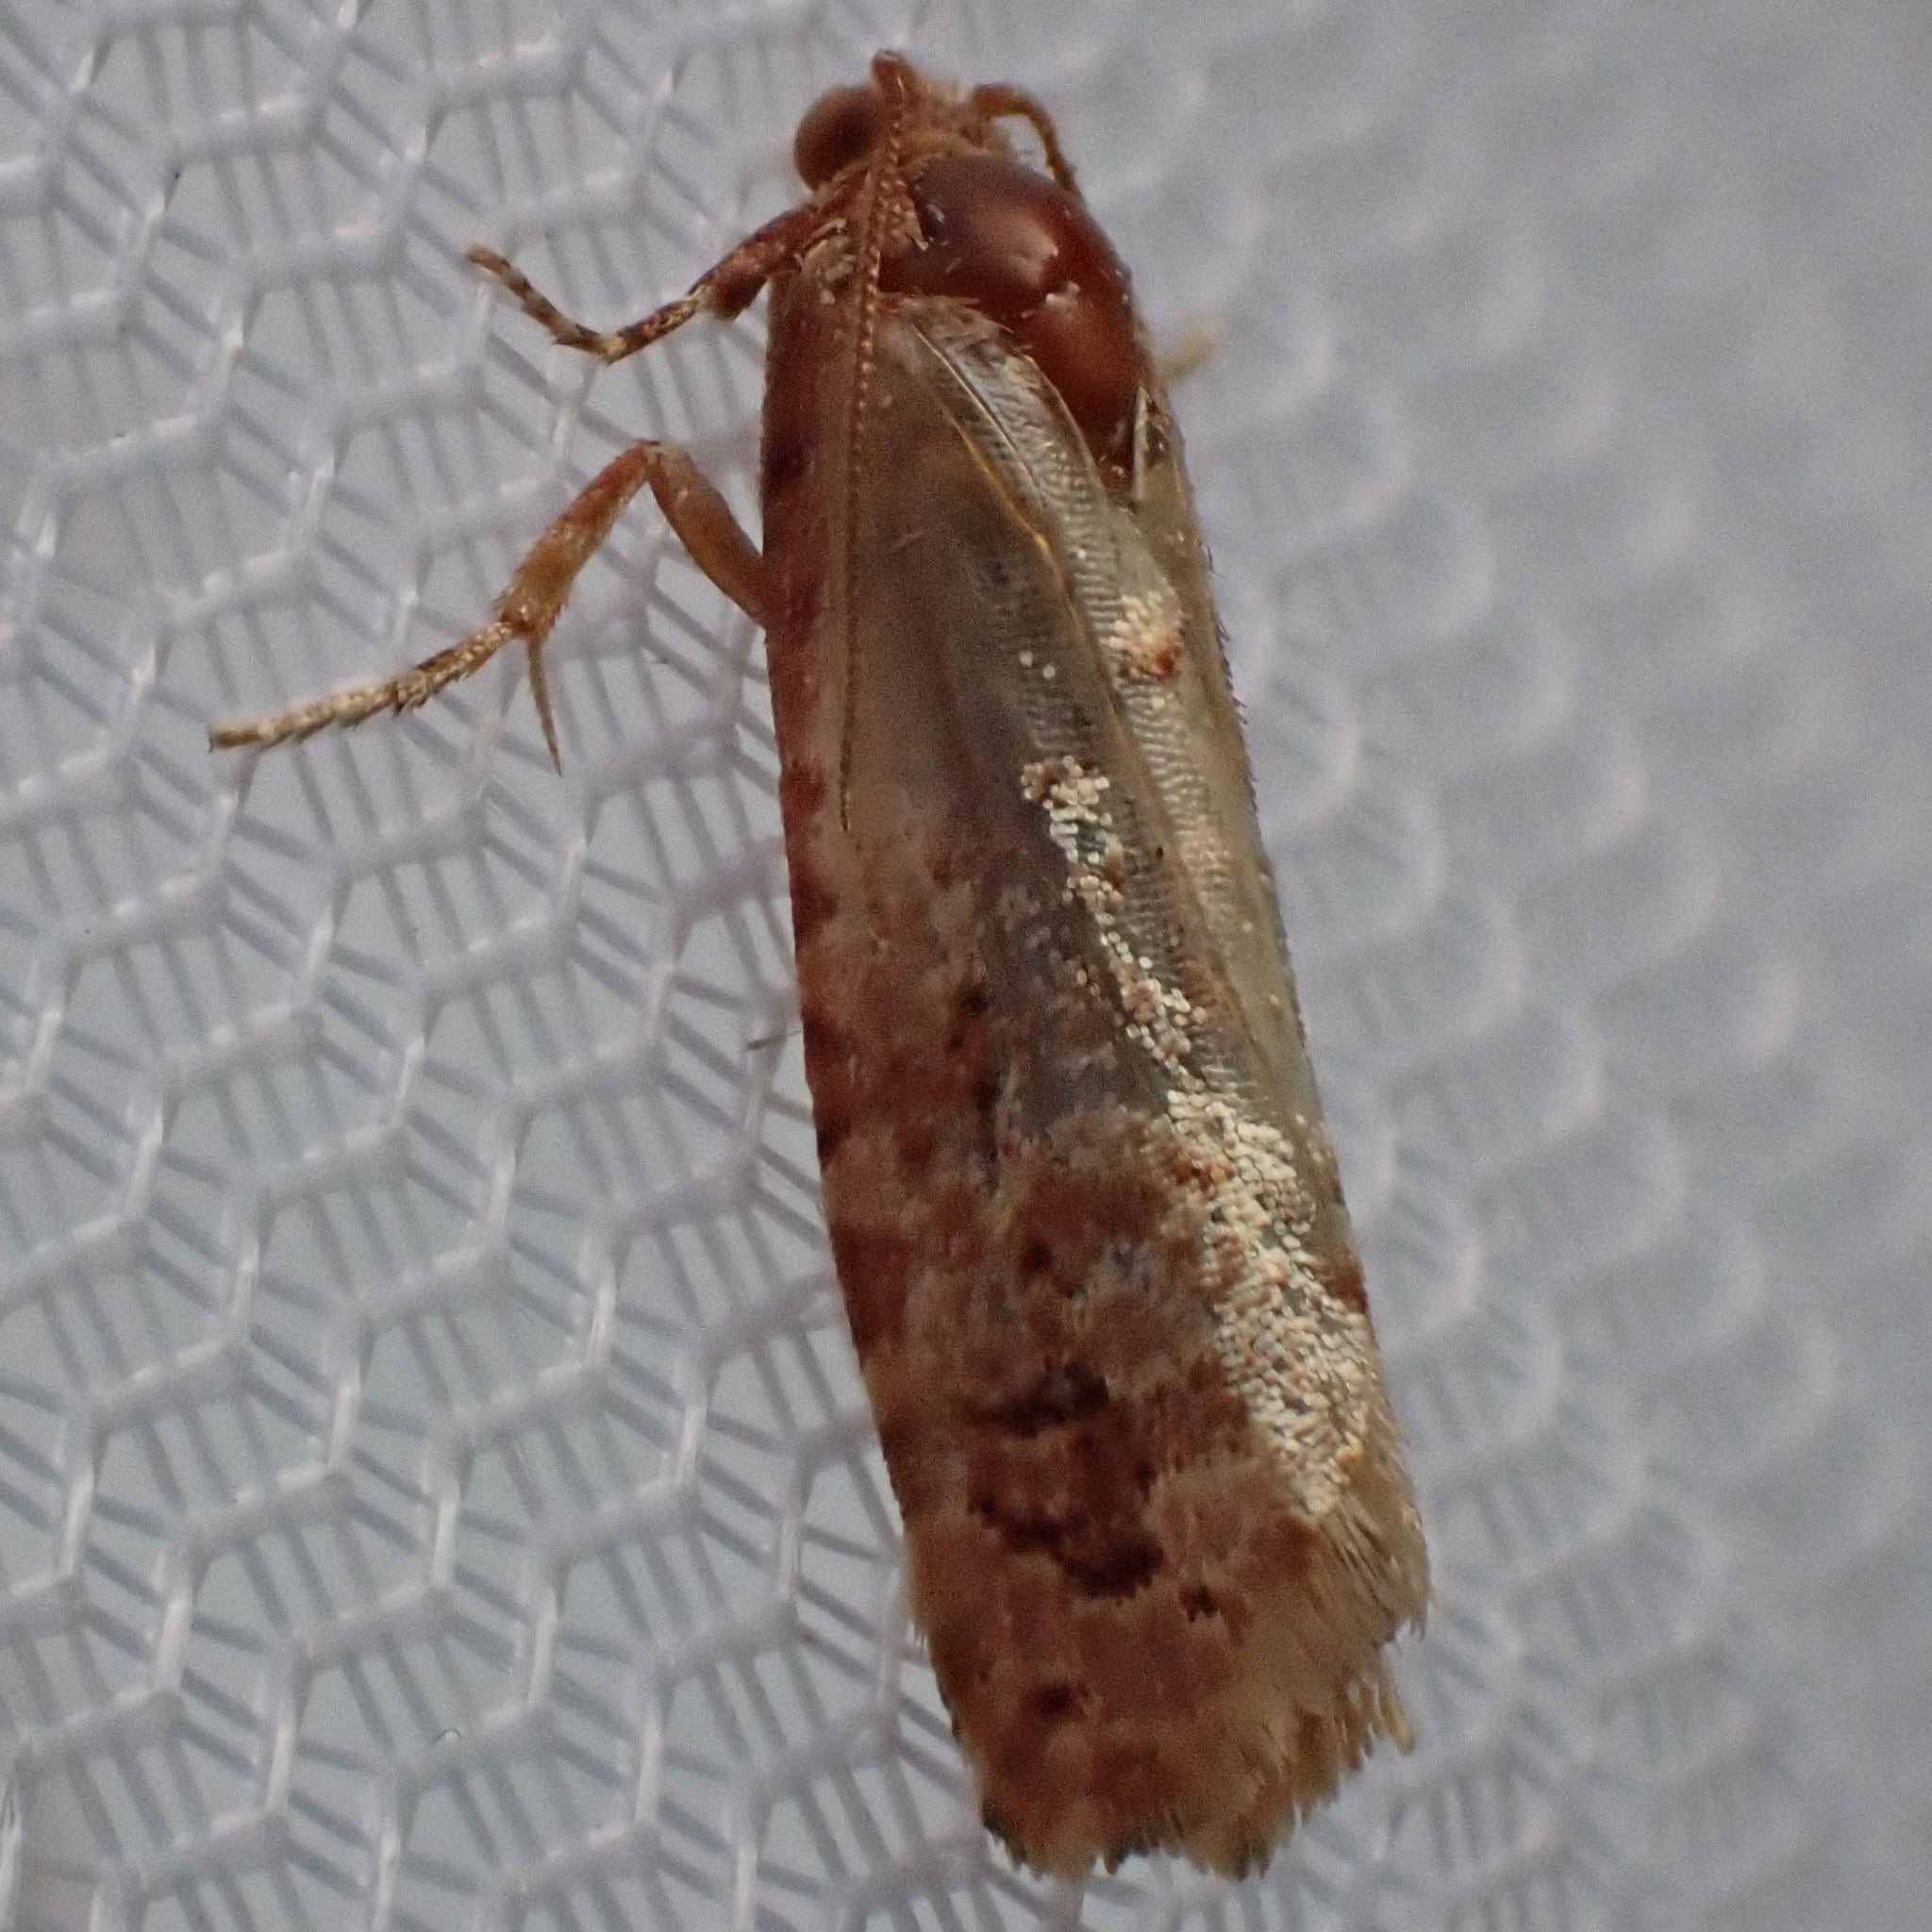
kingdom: Animalia
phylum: Arthropoda
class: Insecta
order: Lepidoptera
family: Tortricidae
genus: Lozotaeniodes
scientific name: Lozotaeniodes formosana
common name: Orange pine twist
